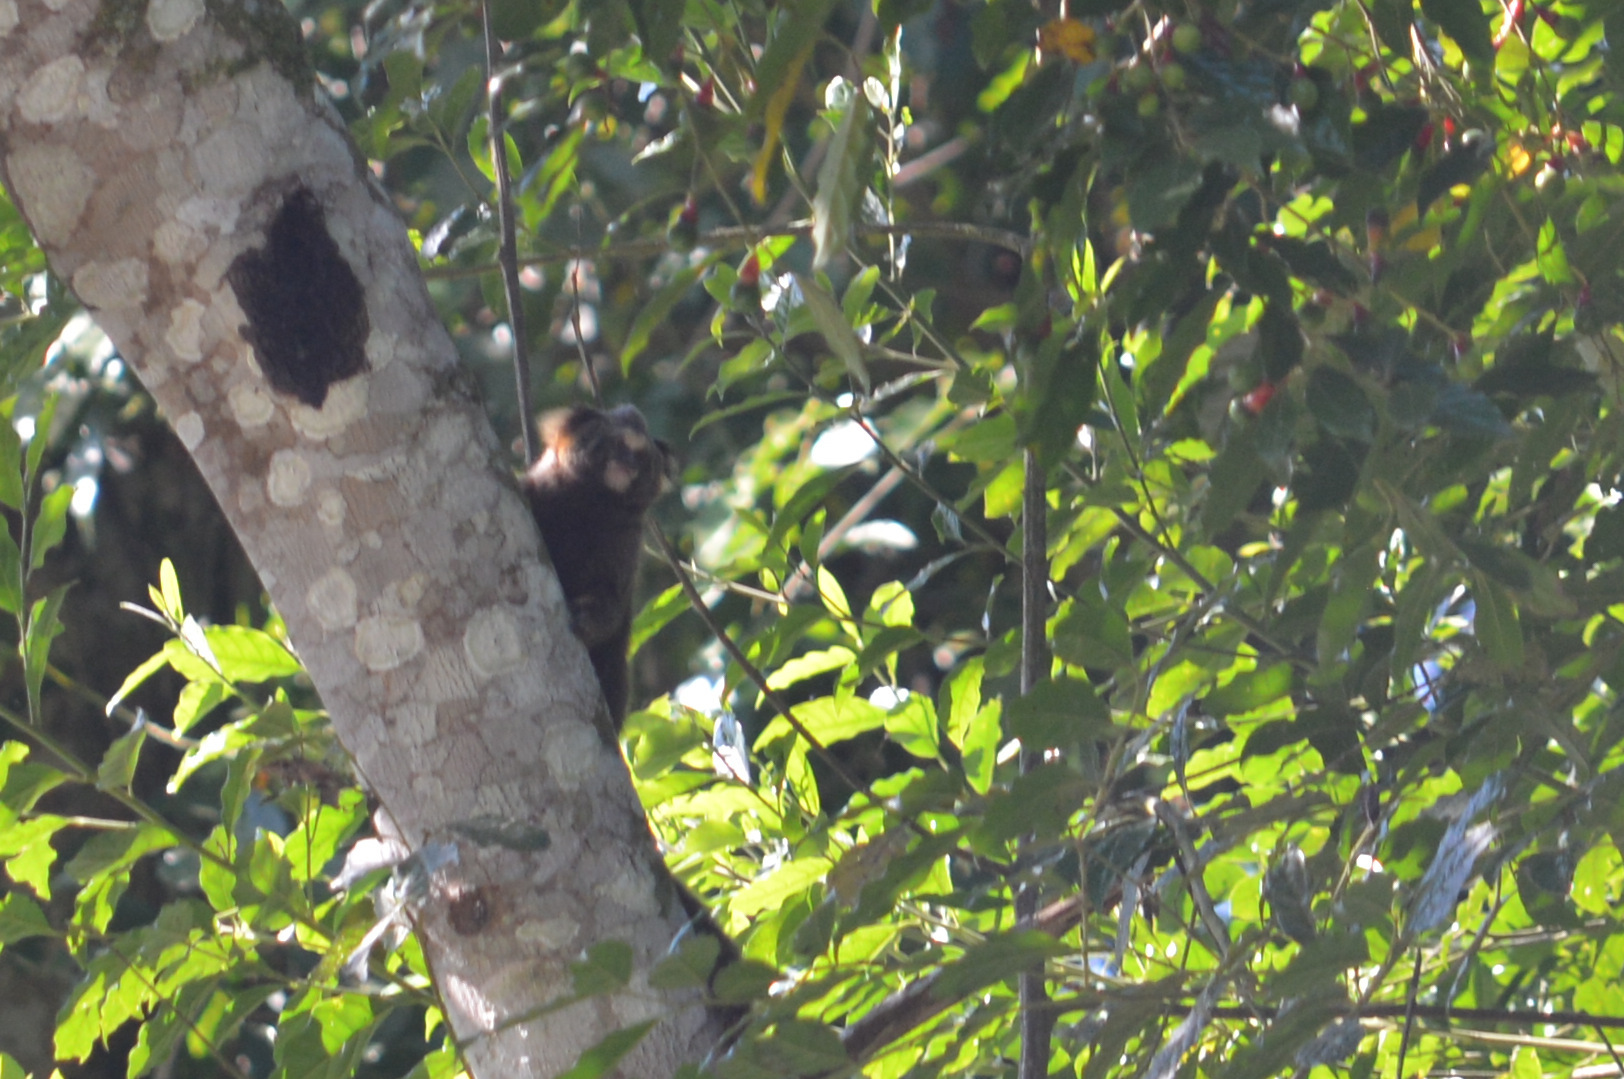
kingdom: Animalia
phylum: Chordata
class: Mammalia
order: Primates
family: Callitrichidae
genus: Callithrix
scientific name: Callithrix aurita
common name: Buffy-tufted marmoset
